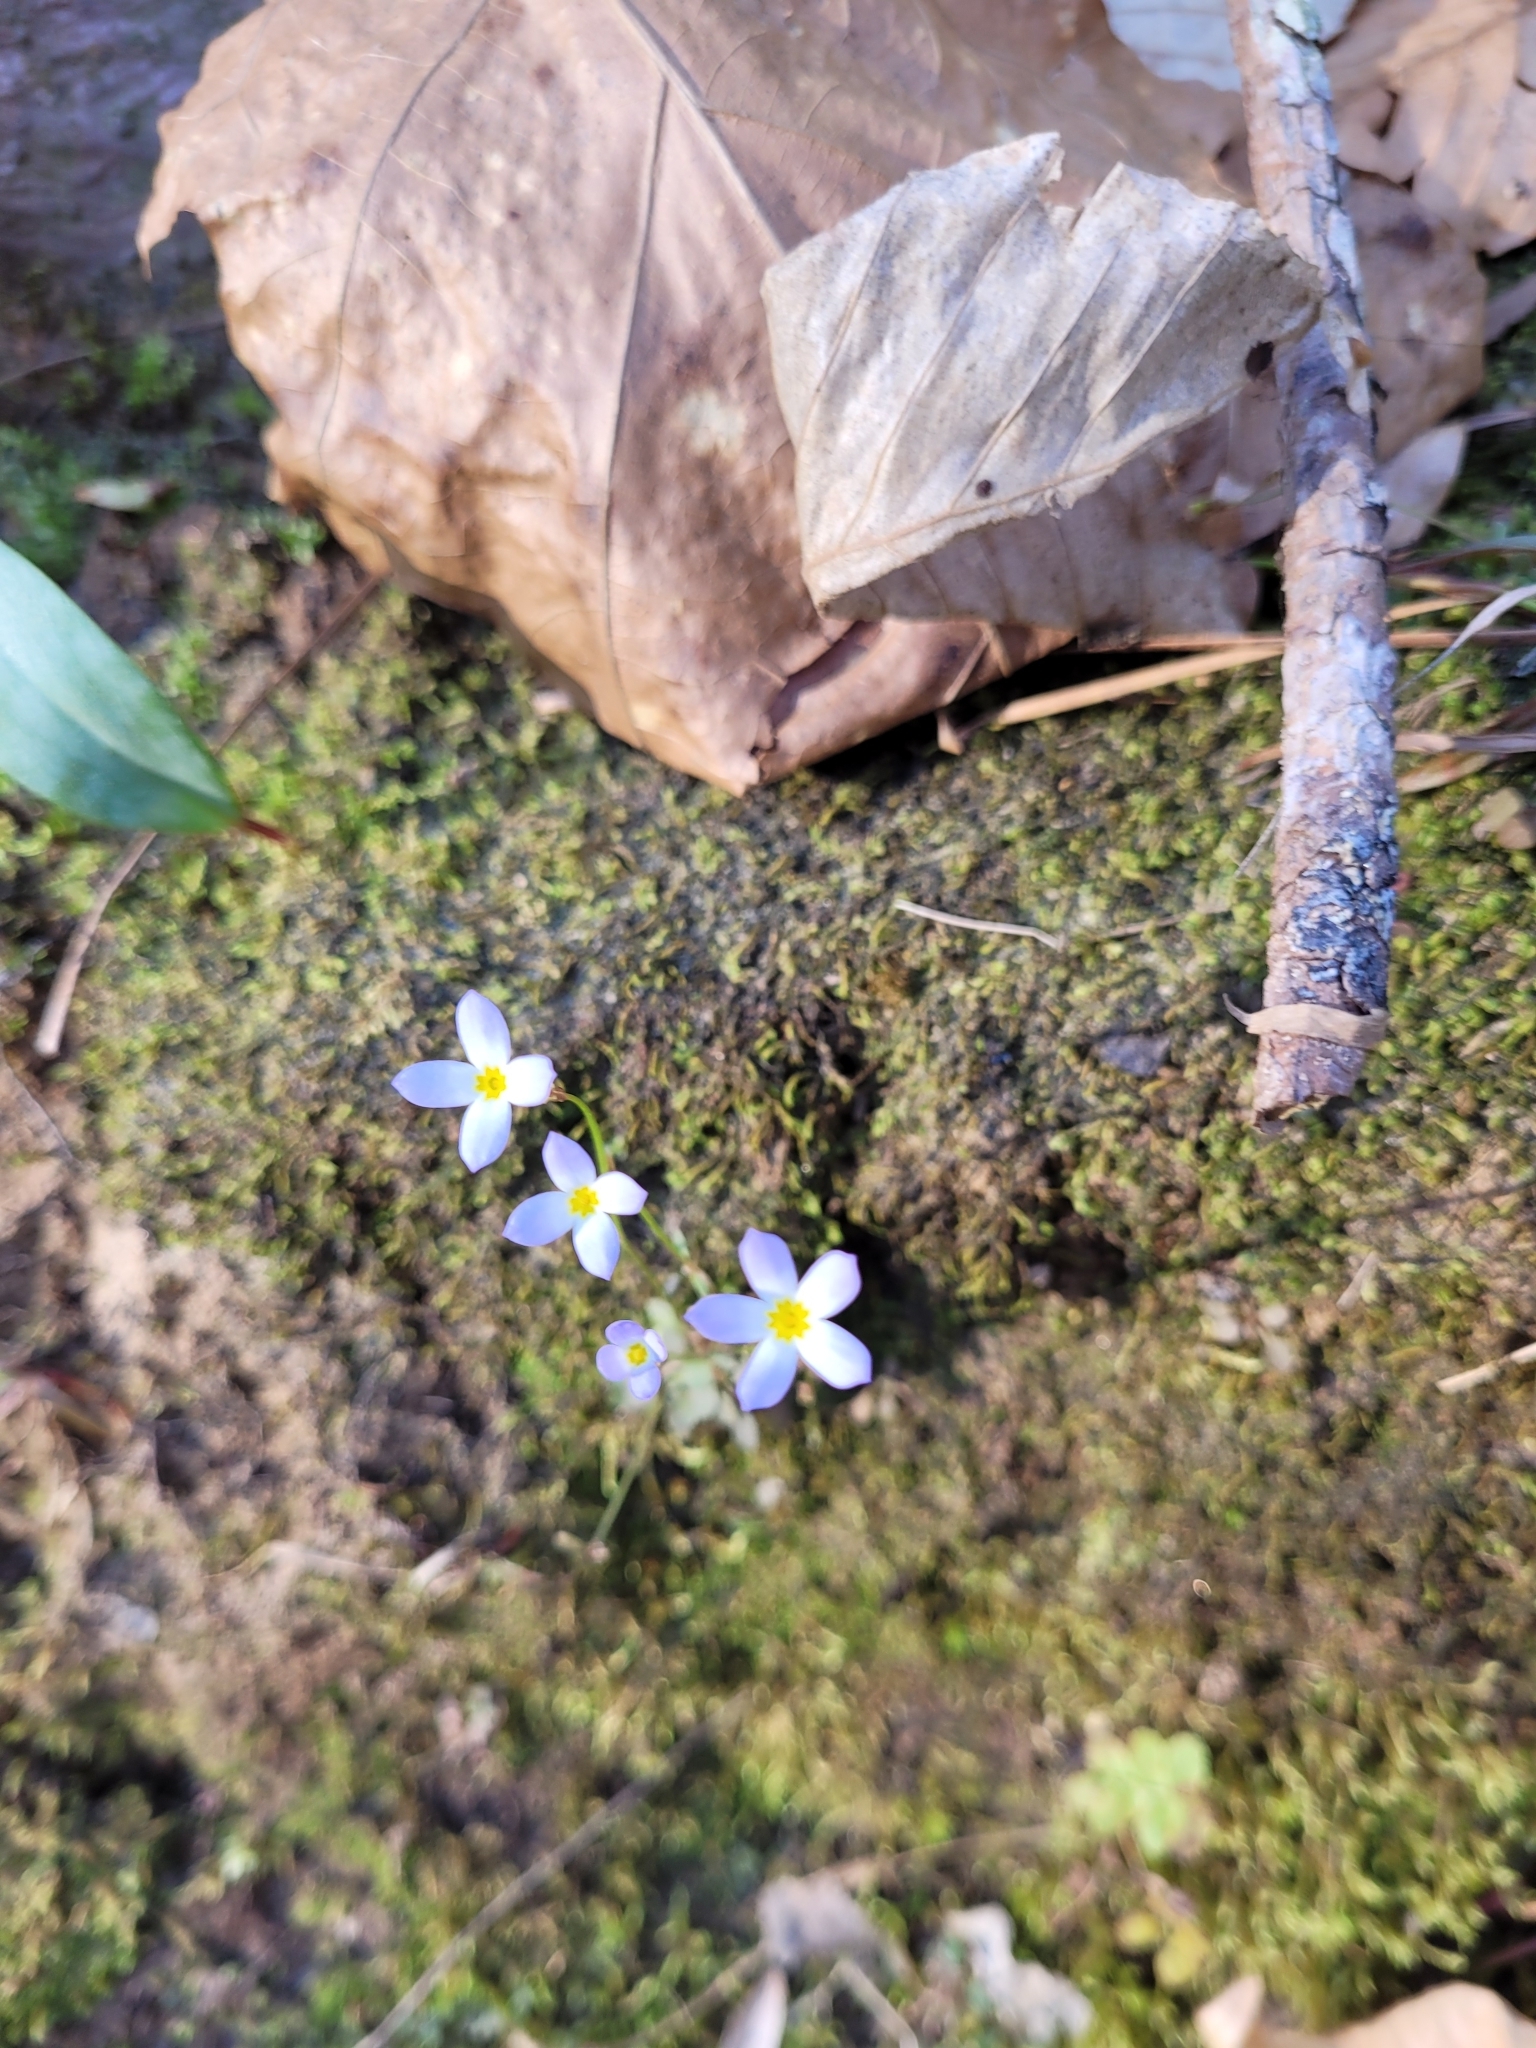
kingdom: Plantae
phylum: Tracheophyta
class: Magnoliopsida
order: Gentianales
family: Rubiaceae
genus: Houstonia
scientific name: Houstonia caerulea
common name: Bluets
